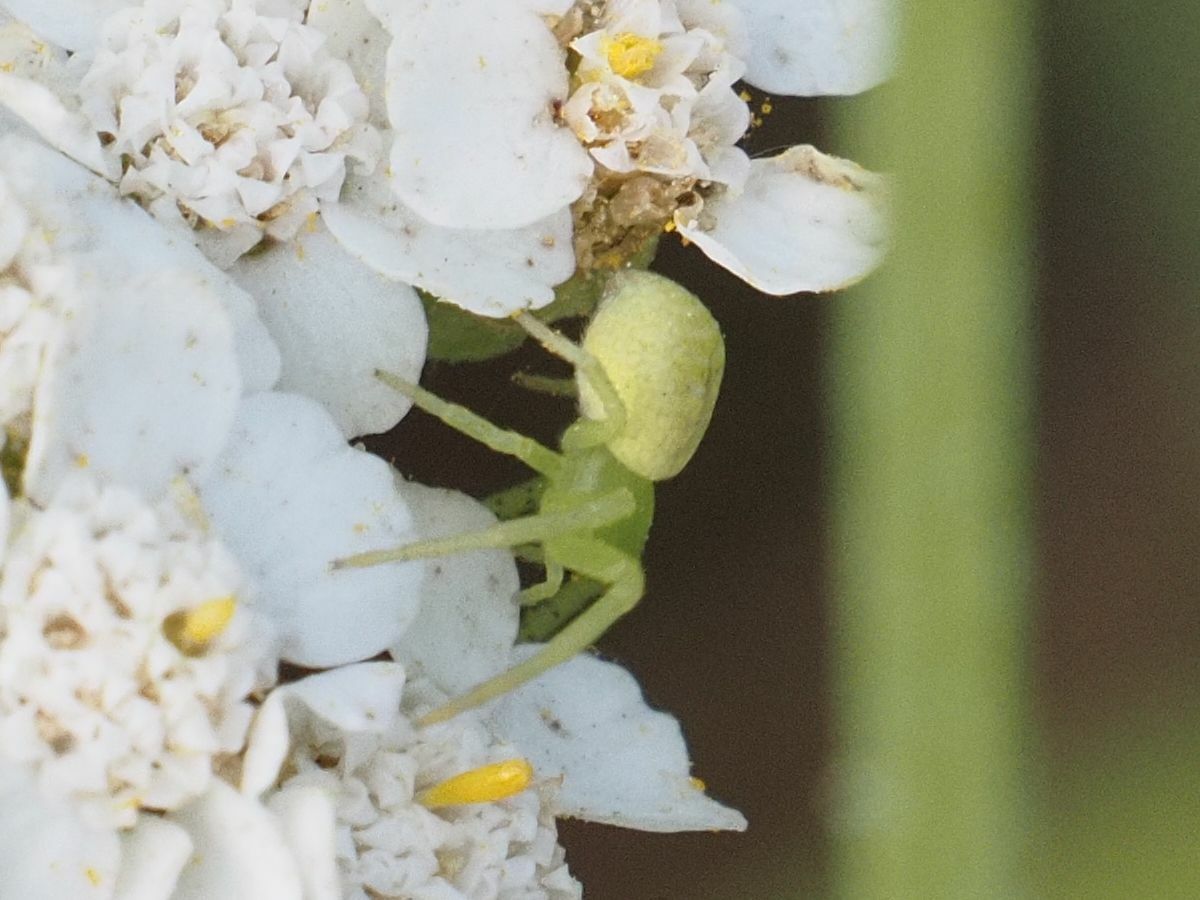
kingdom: Animalia
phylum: Arthropoda
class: Arachnida
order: Araneae
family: Thomisidae
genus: Ebrechtella
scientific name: Ebrechtella tricuspidata
